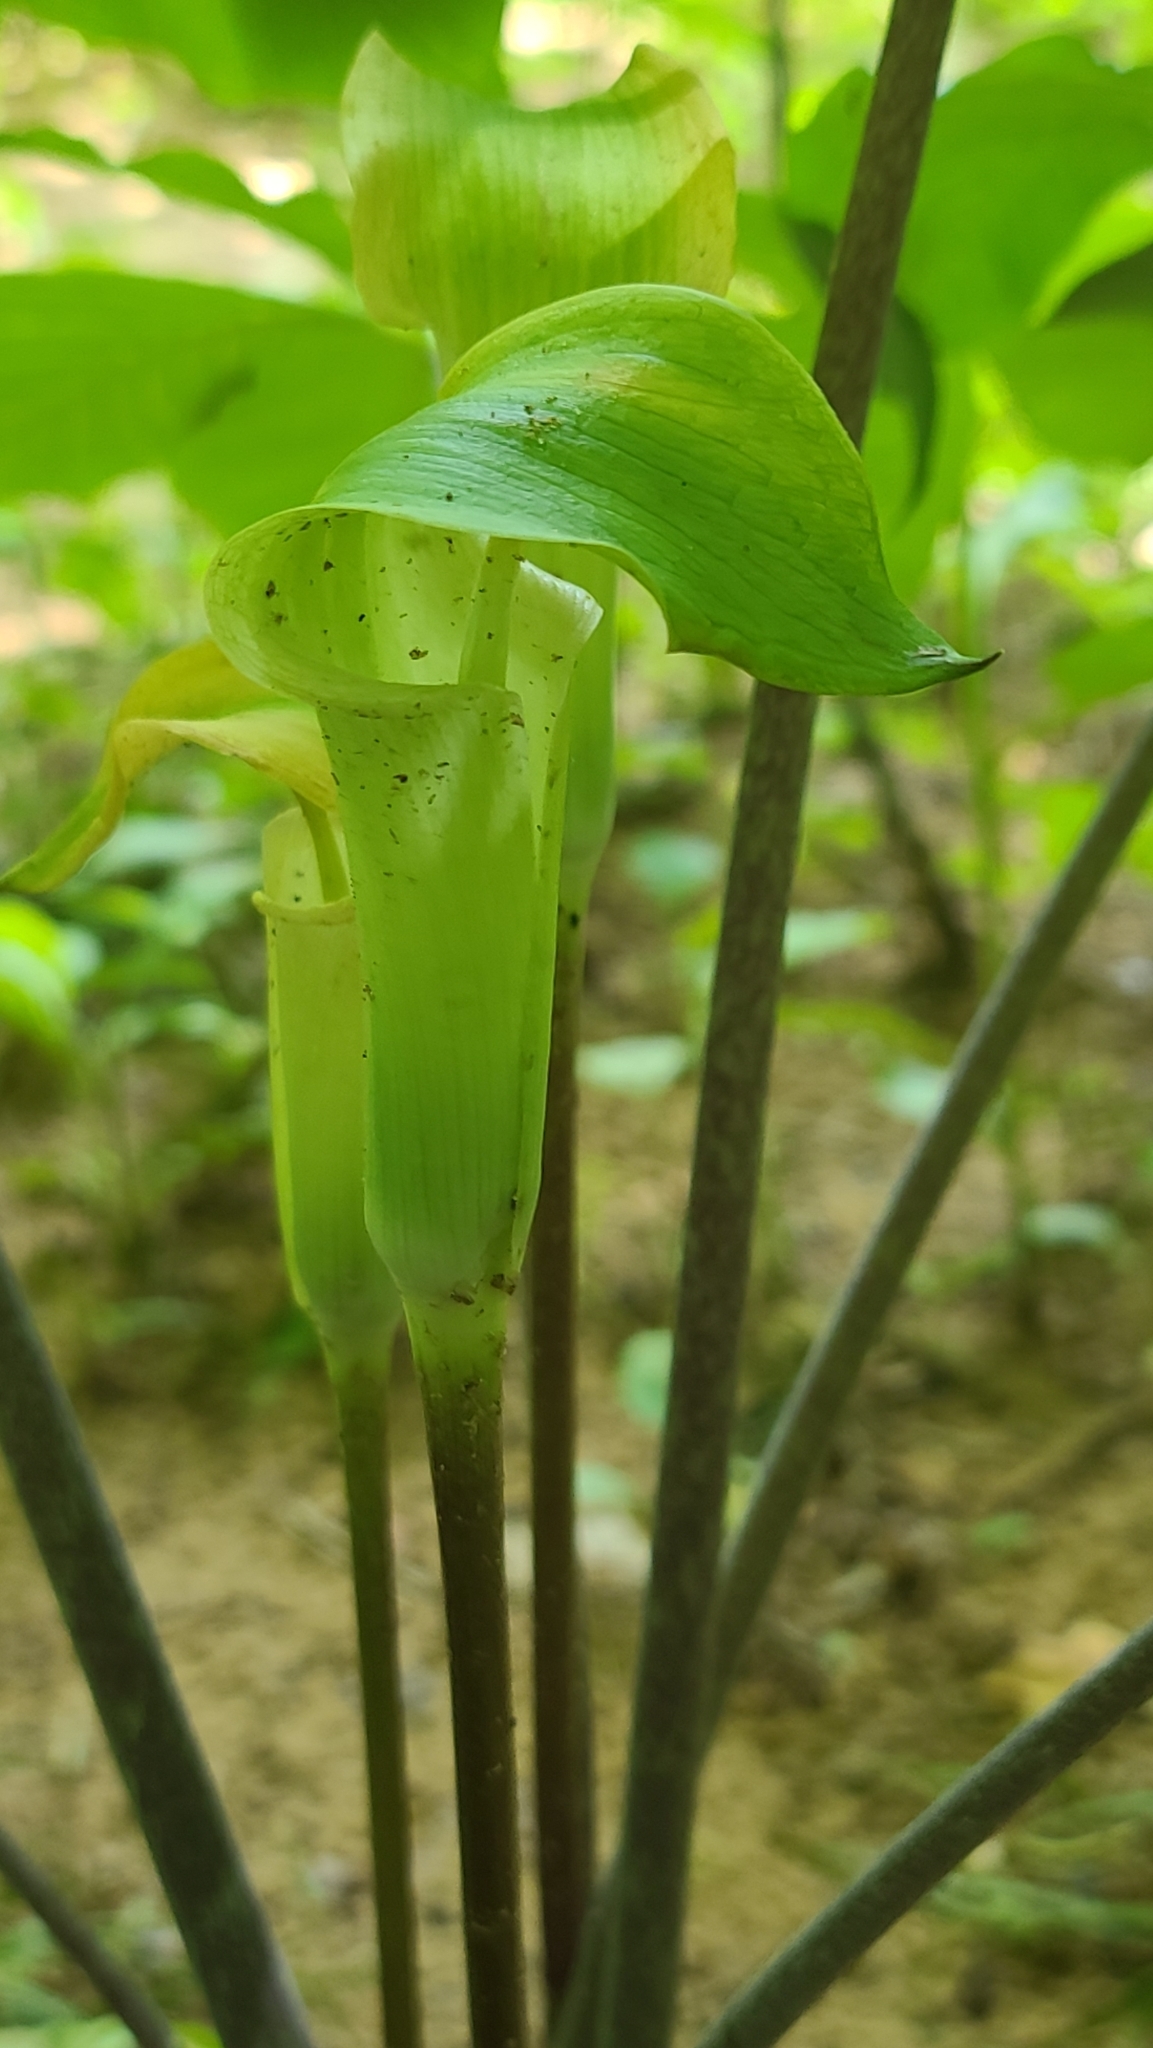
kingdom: Plantae
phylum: Tracheophyta
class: Liliopsida
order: Alismatales
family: Araceae
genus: Arisaema
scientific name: Arisaema quinatum
